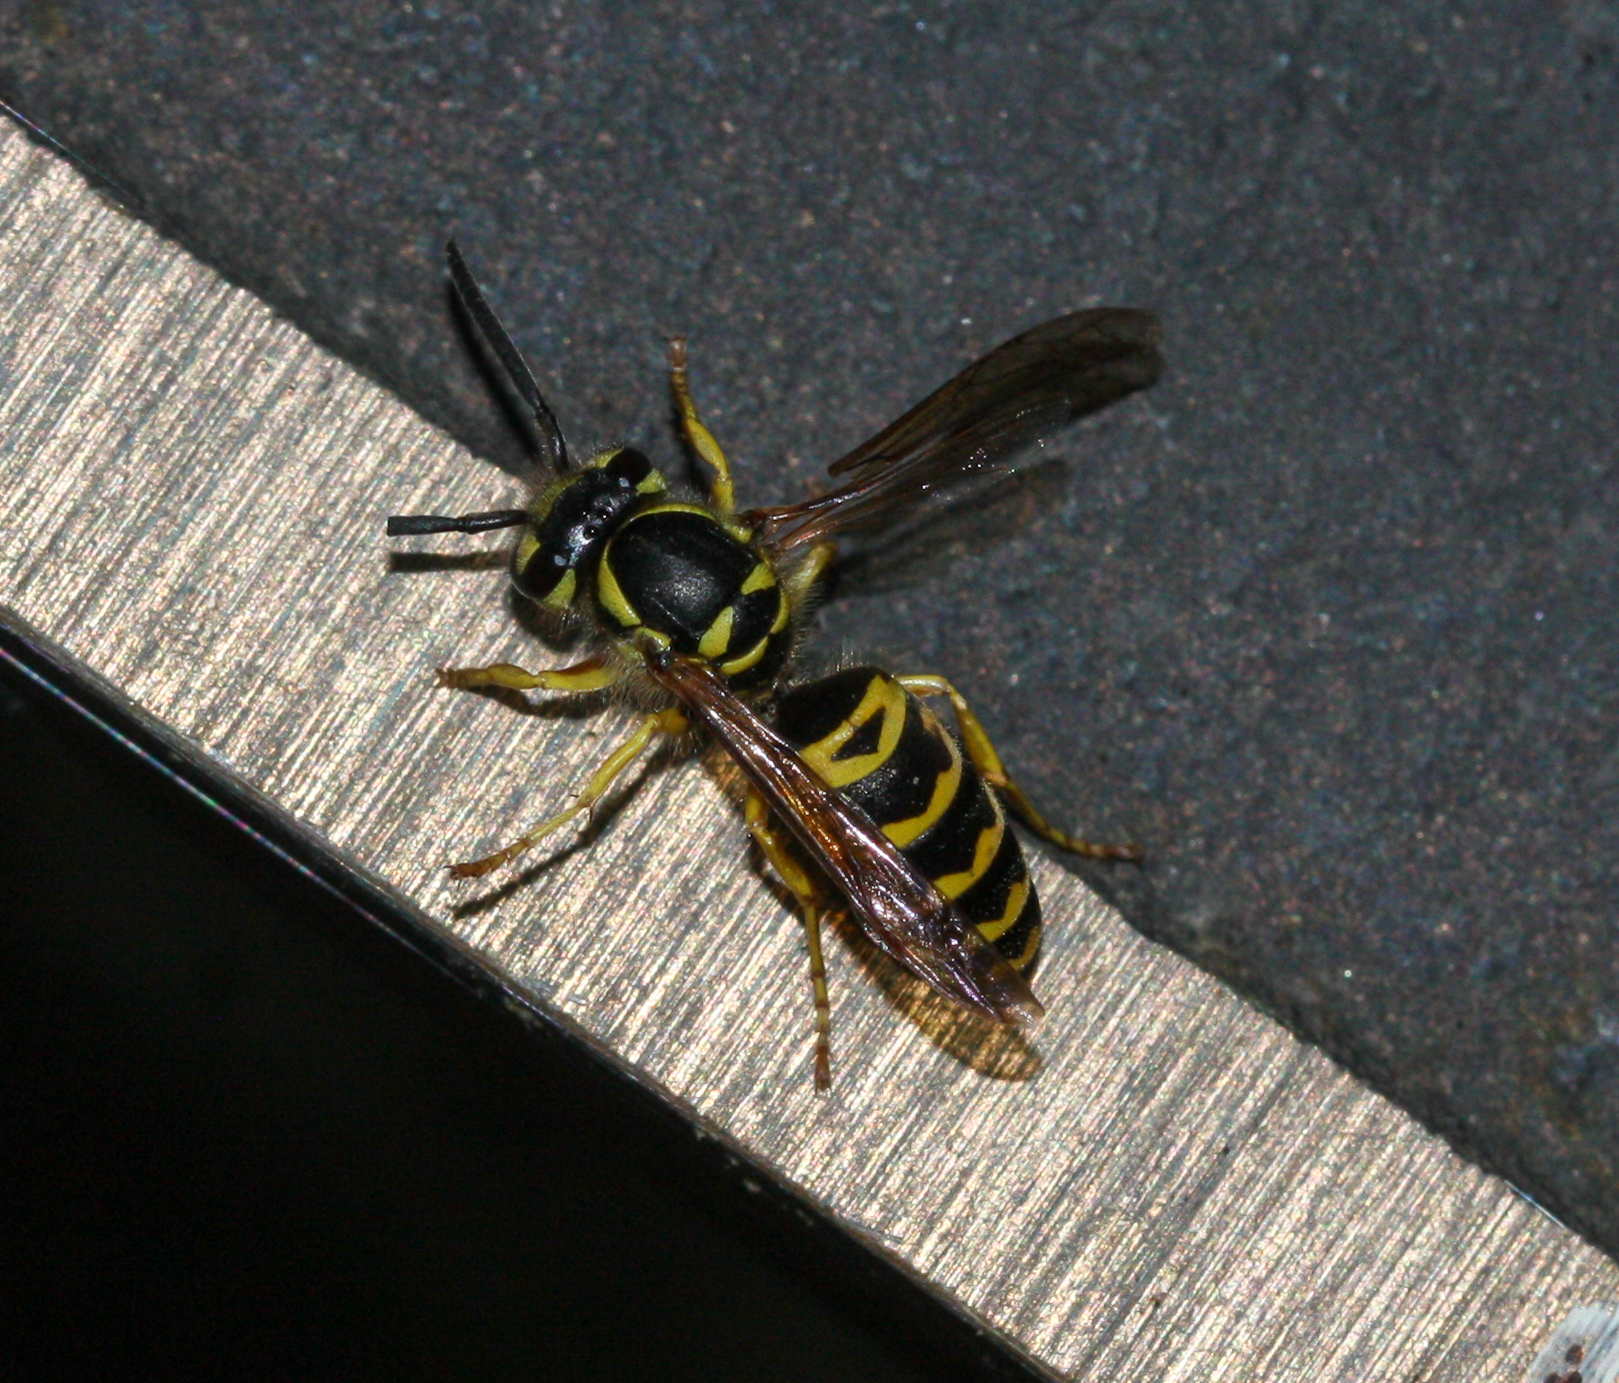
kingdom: Animalia
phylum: Arthropoda
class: Insecta
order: Hymenoptera
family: Vespidae
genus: Vespula
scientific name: Vespula maculifrons
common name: Eastern yellowjacket
